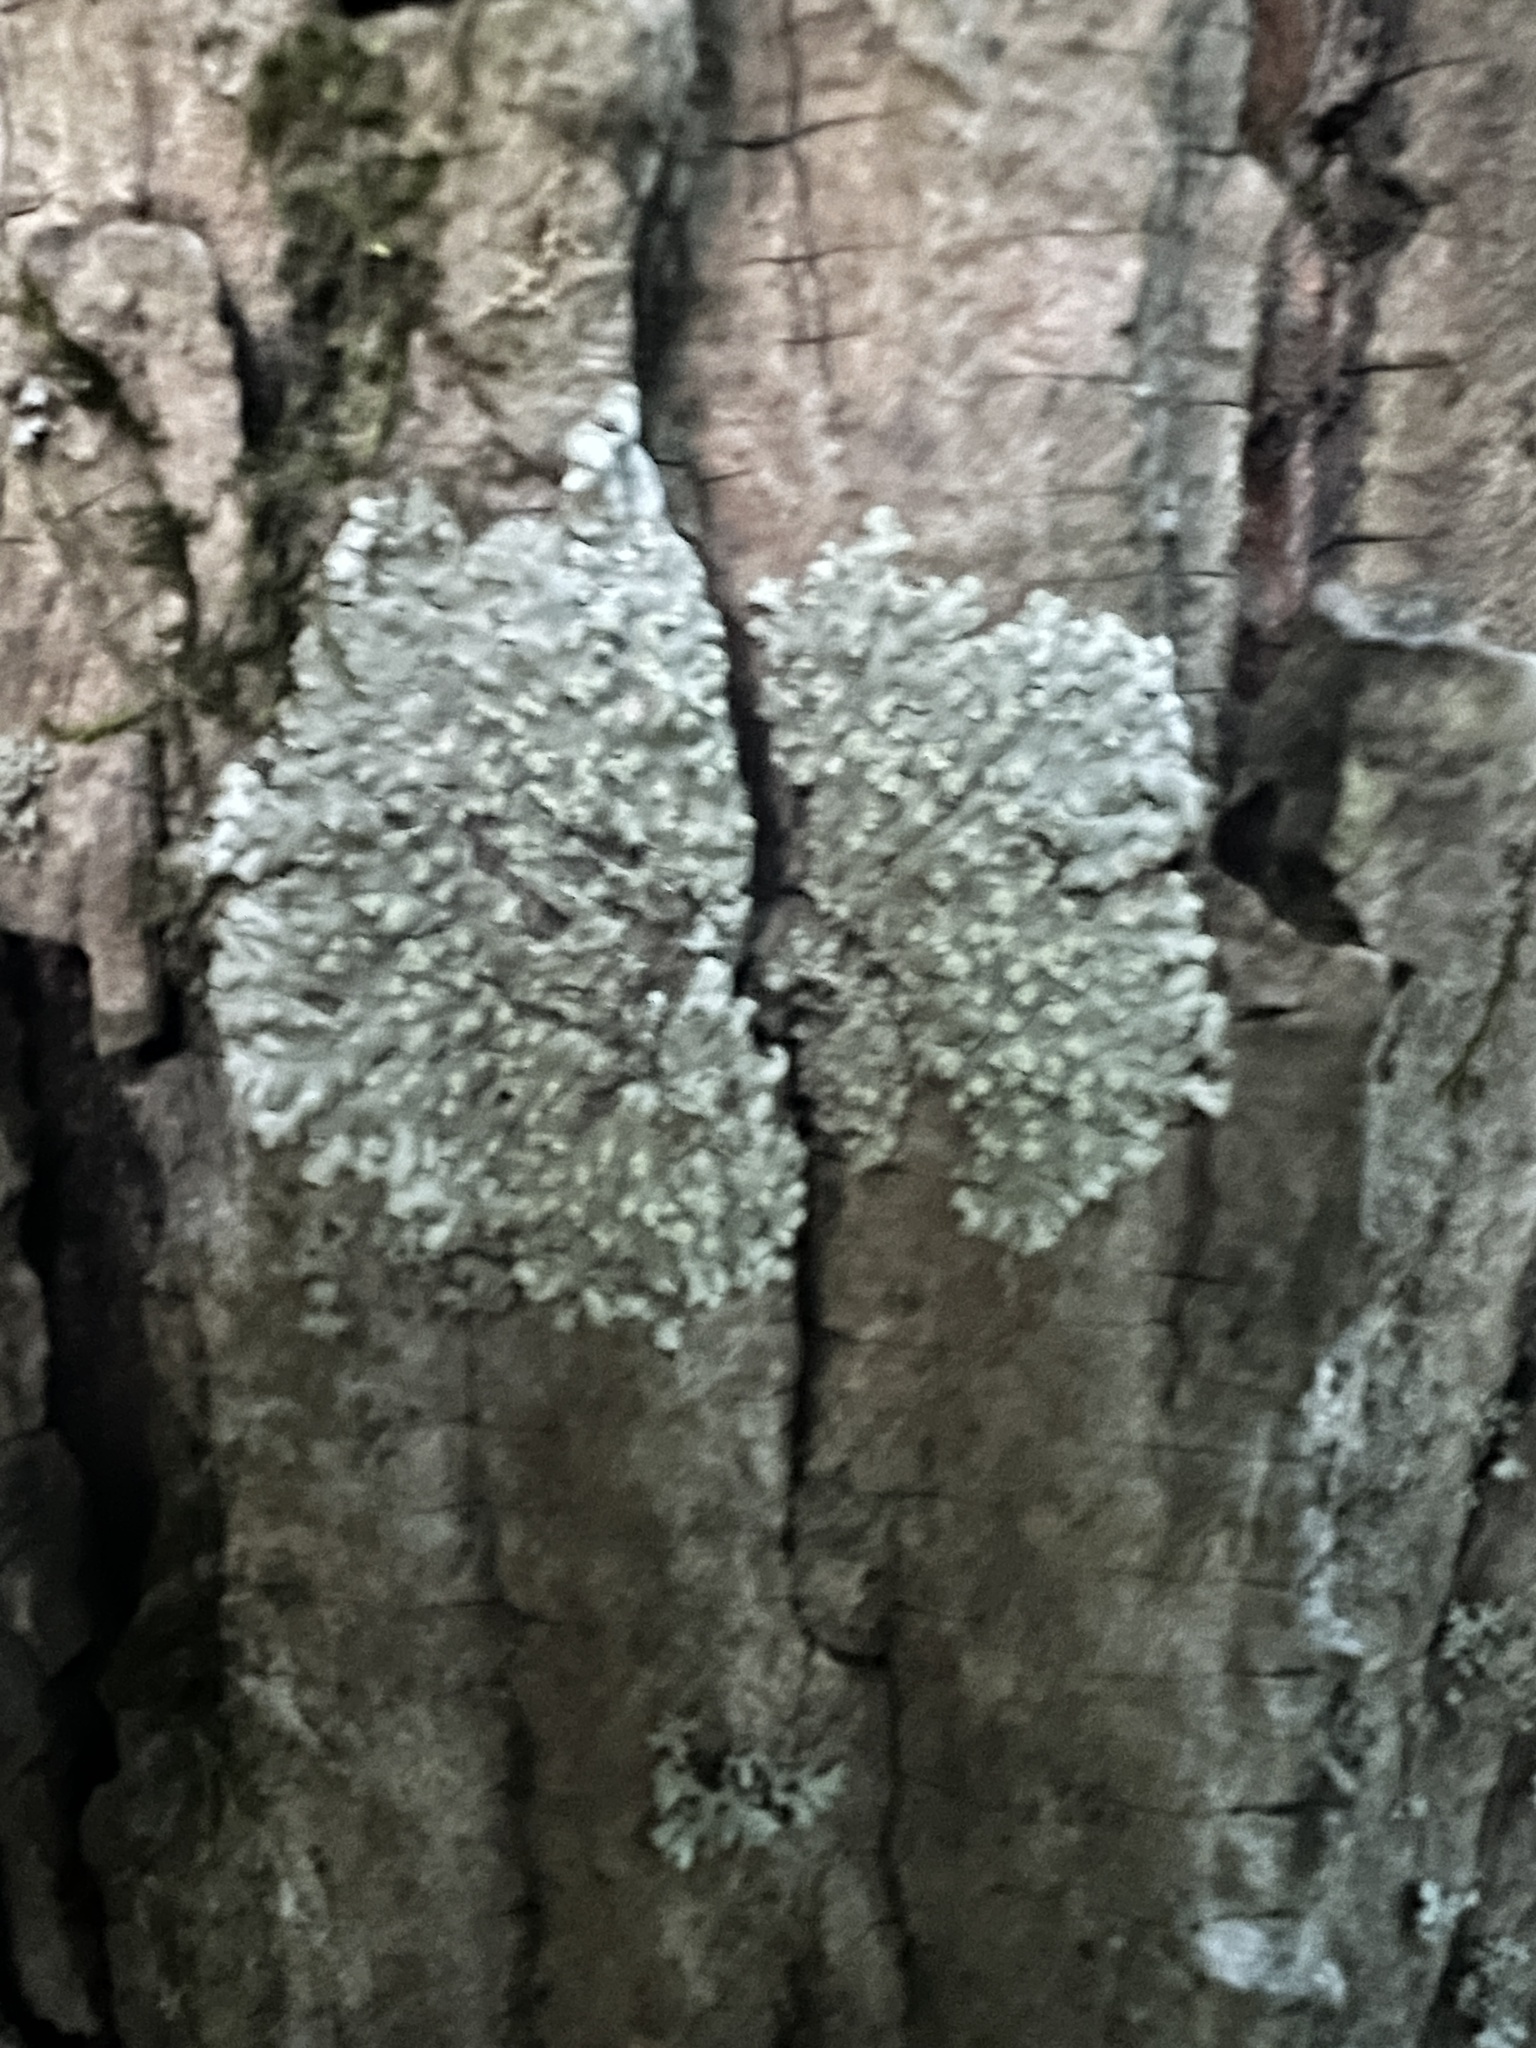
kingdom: Fungi
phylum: Ascomycota
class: Lecanoromycetes
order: Caliciales
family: Caliciaceae
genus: Pyxine
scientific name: Pyxine subcinerea
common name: Mustard lichen
